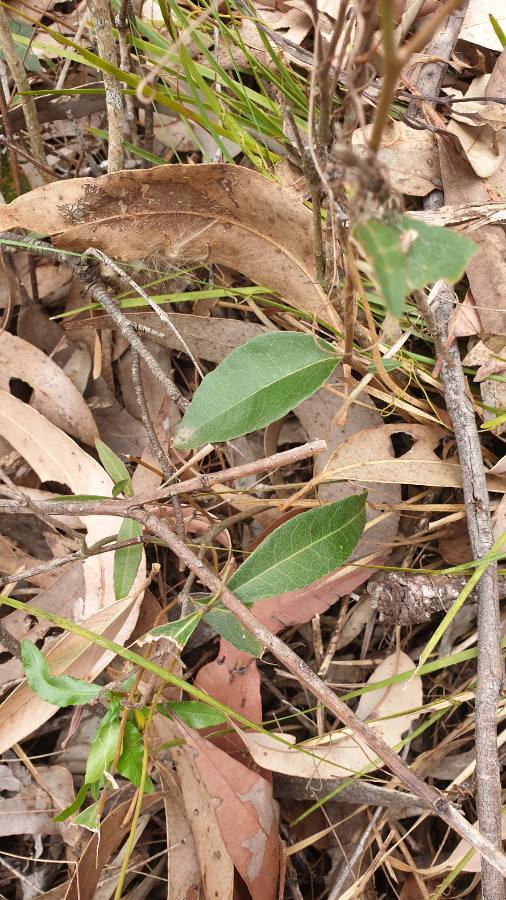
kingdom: Plantae
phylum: Tracheophyta
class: Magnoliopsida
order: Lamiales
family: Oleaceae
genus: Notelaea
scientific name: Notelaea ovata
